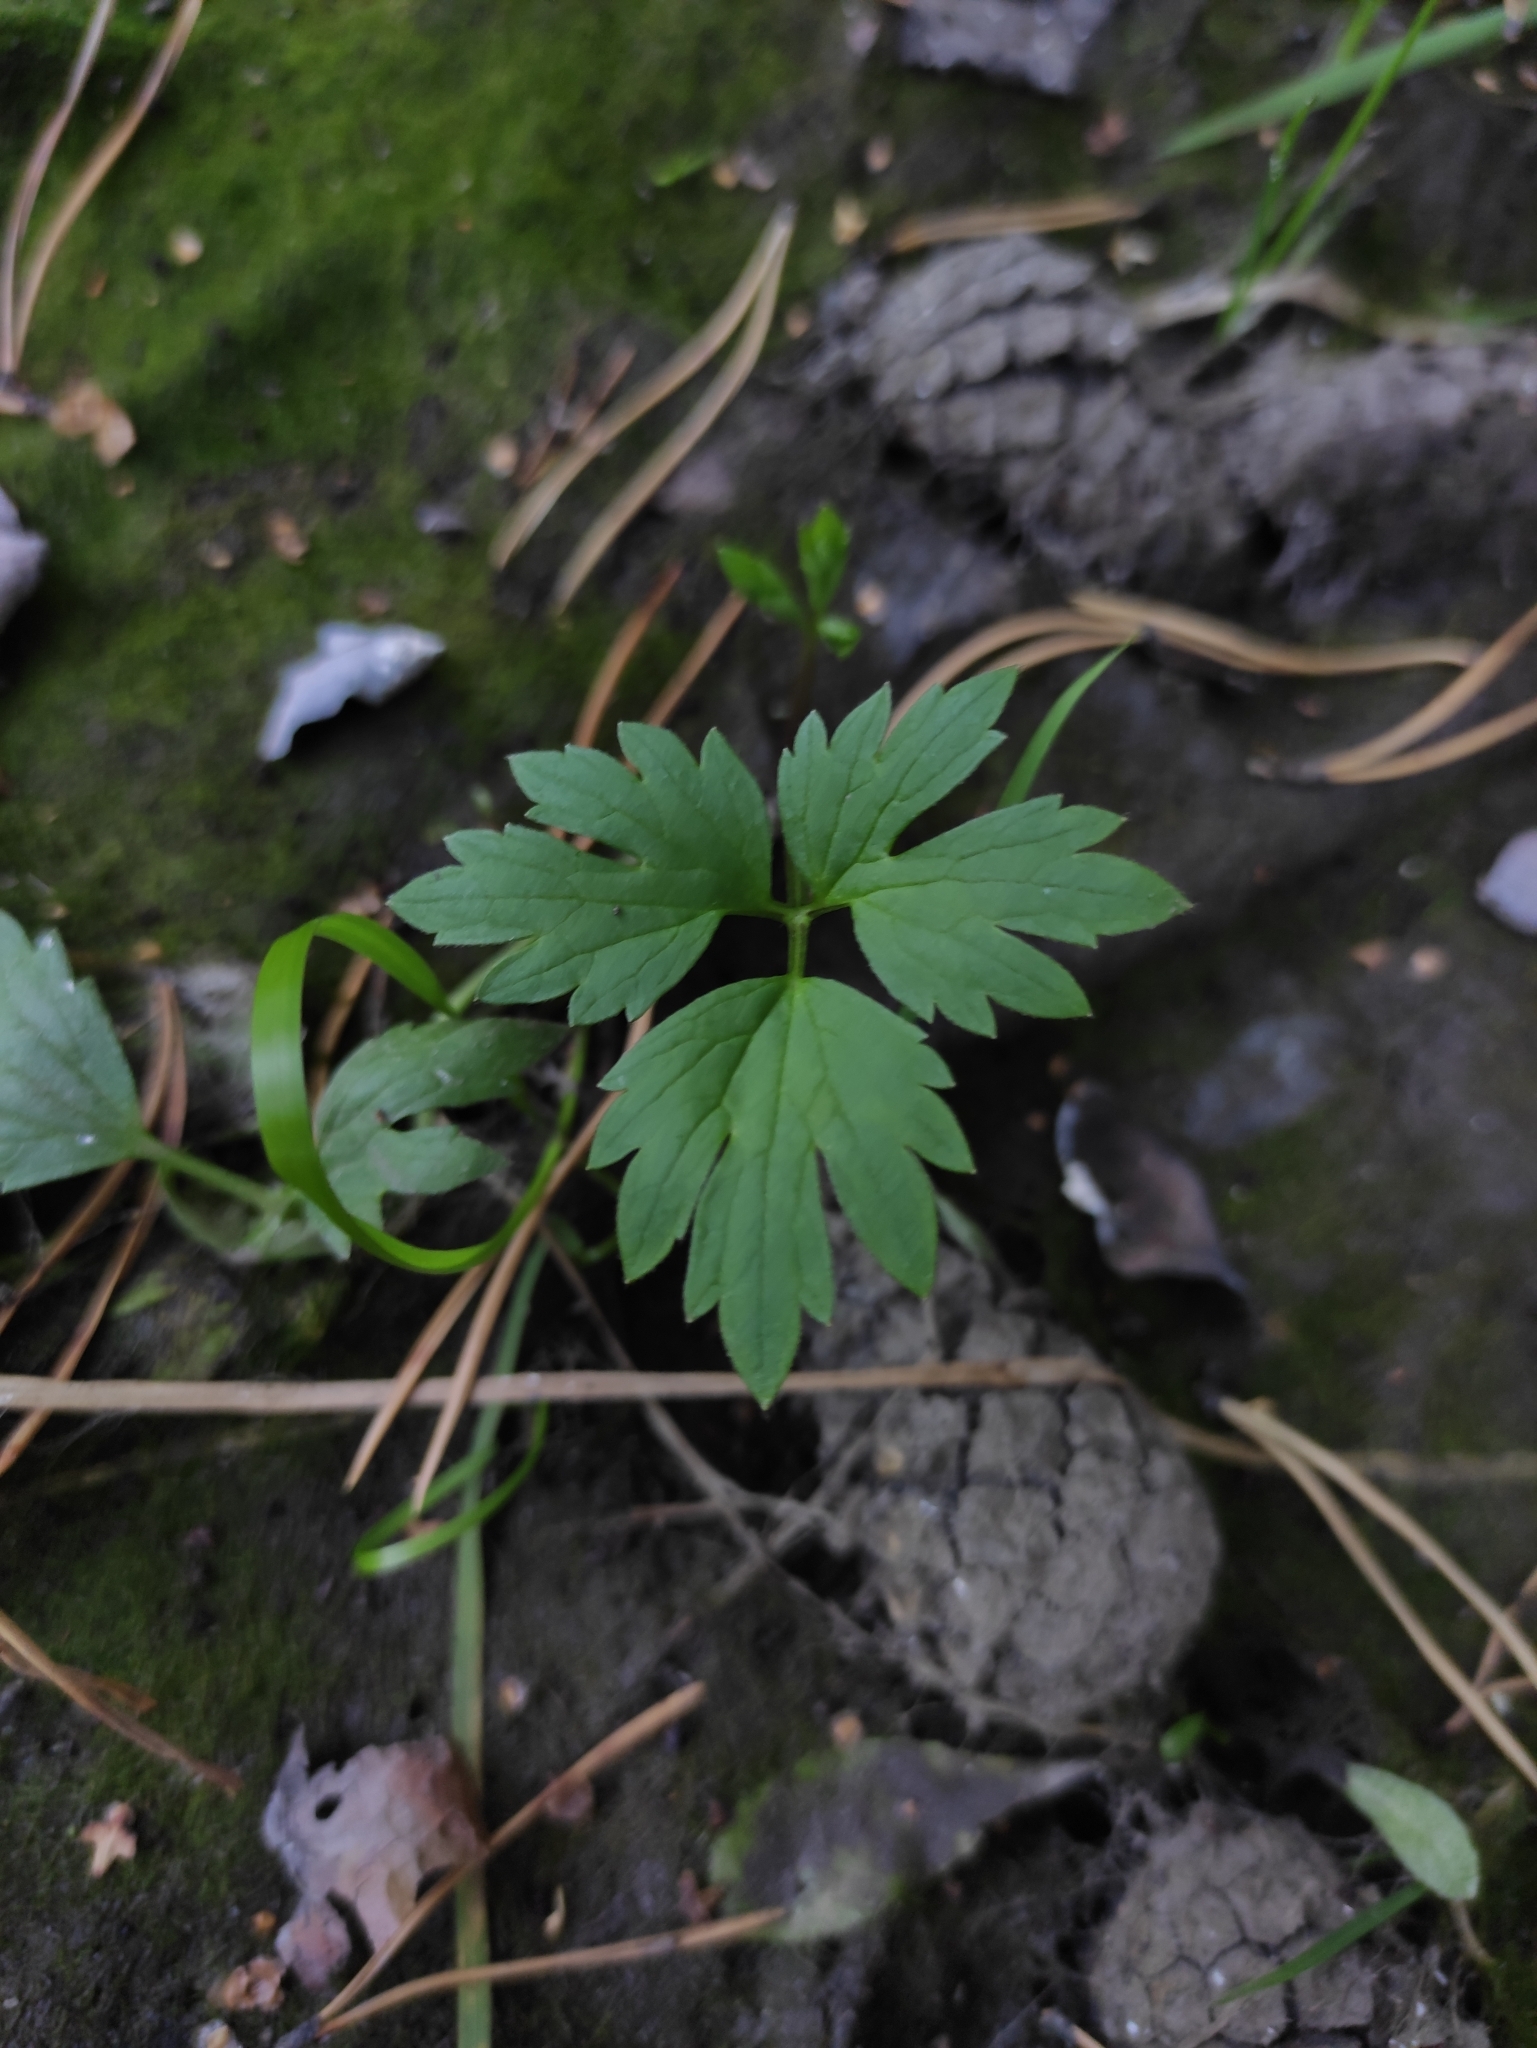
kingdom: Plantae
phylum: Tracheophyta
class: Magnoliopsida
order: Ranunculales
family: Ranunculaceae
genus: Ranunculus
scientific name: Ranunculus repens
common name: Creeping buttercup
